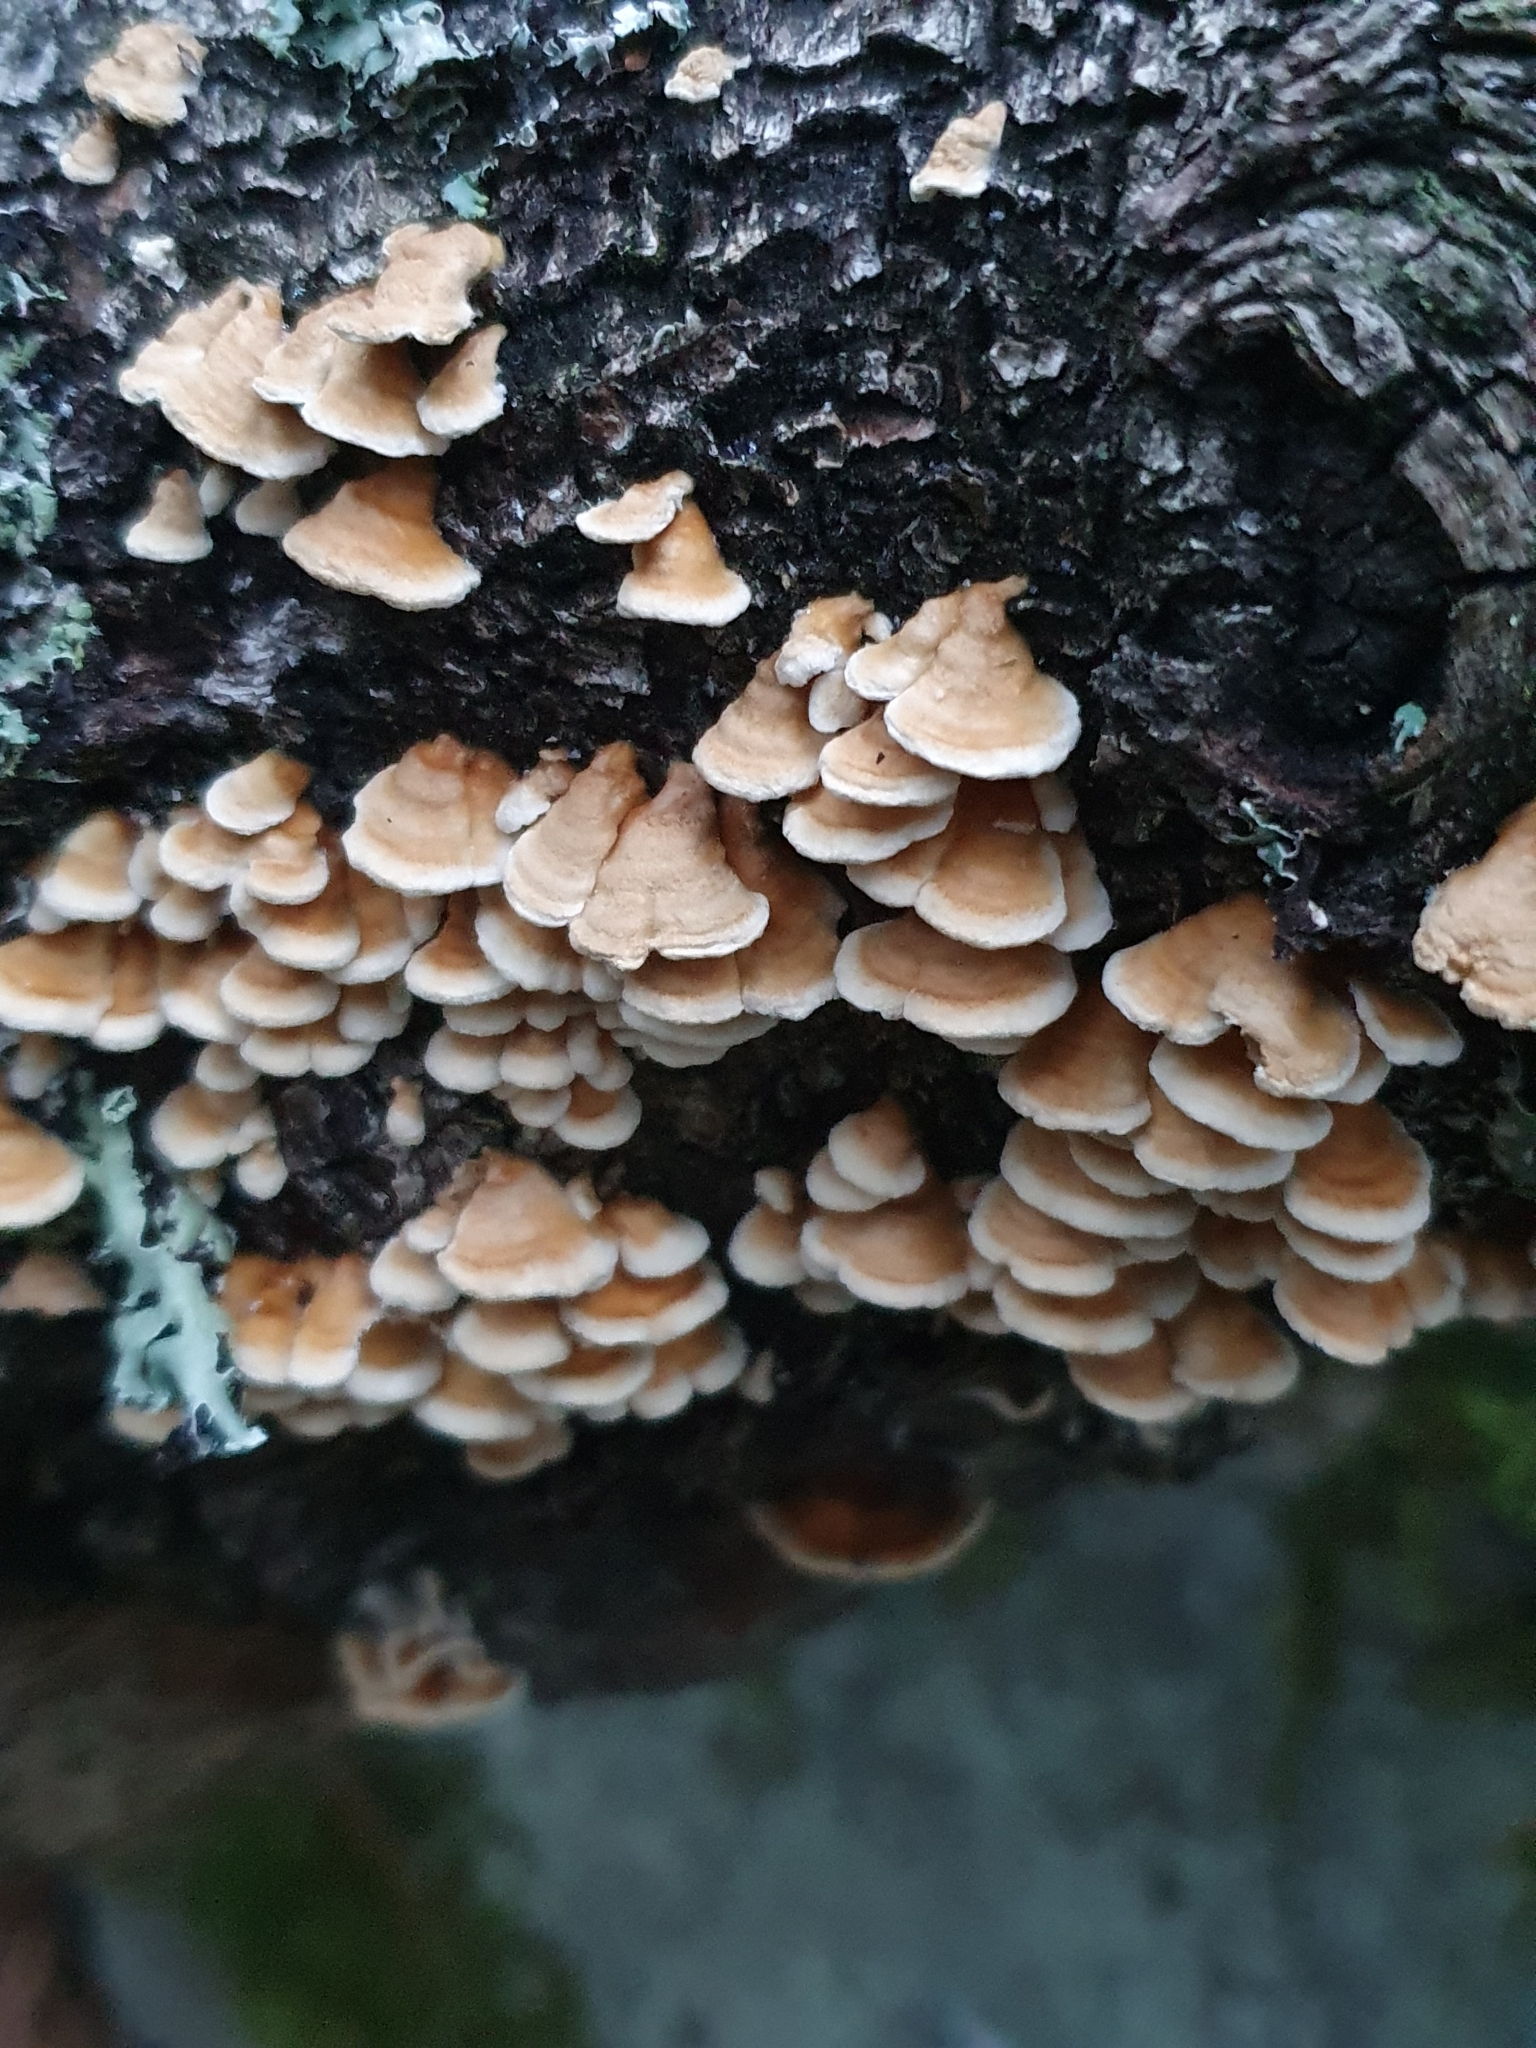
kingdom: Fungi
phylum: Basidiomycota
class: Agaricomycetes
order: Amylocorticiales
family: Amylocorticiaceae
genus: Plicaturopsis
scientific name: Plicaturopsis crispa
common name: Crimped gill
